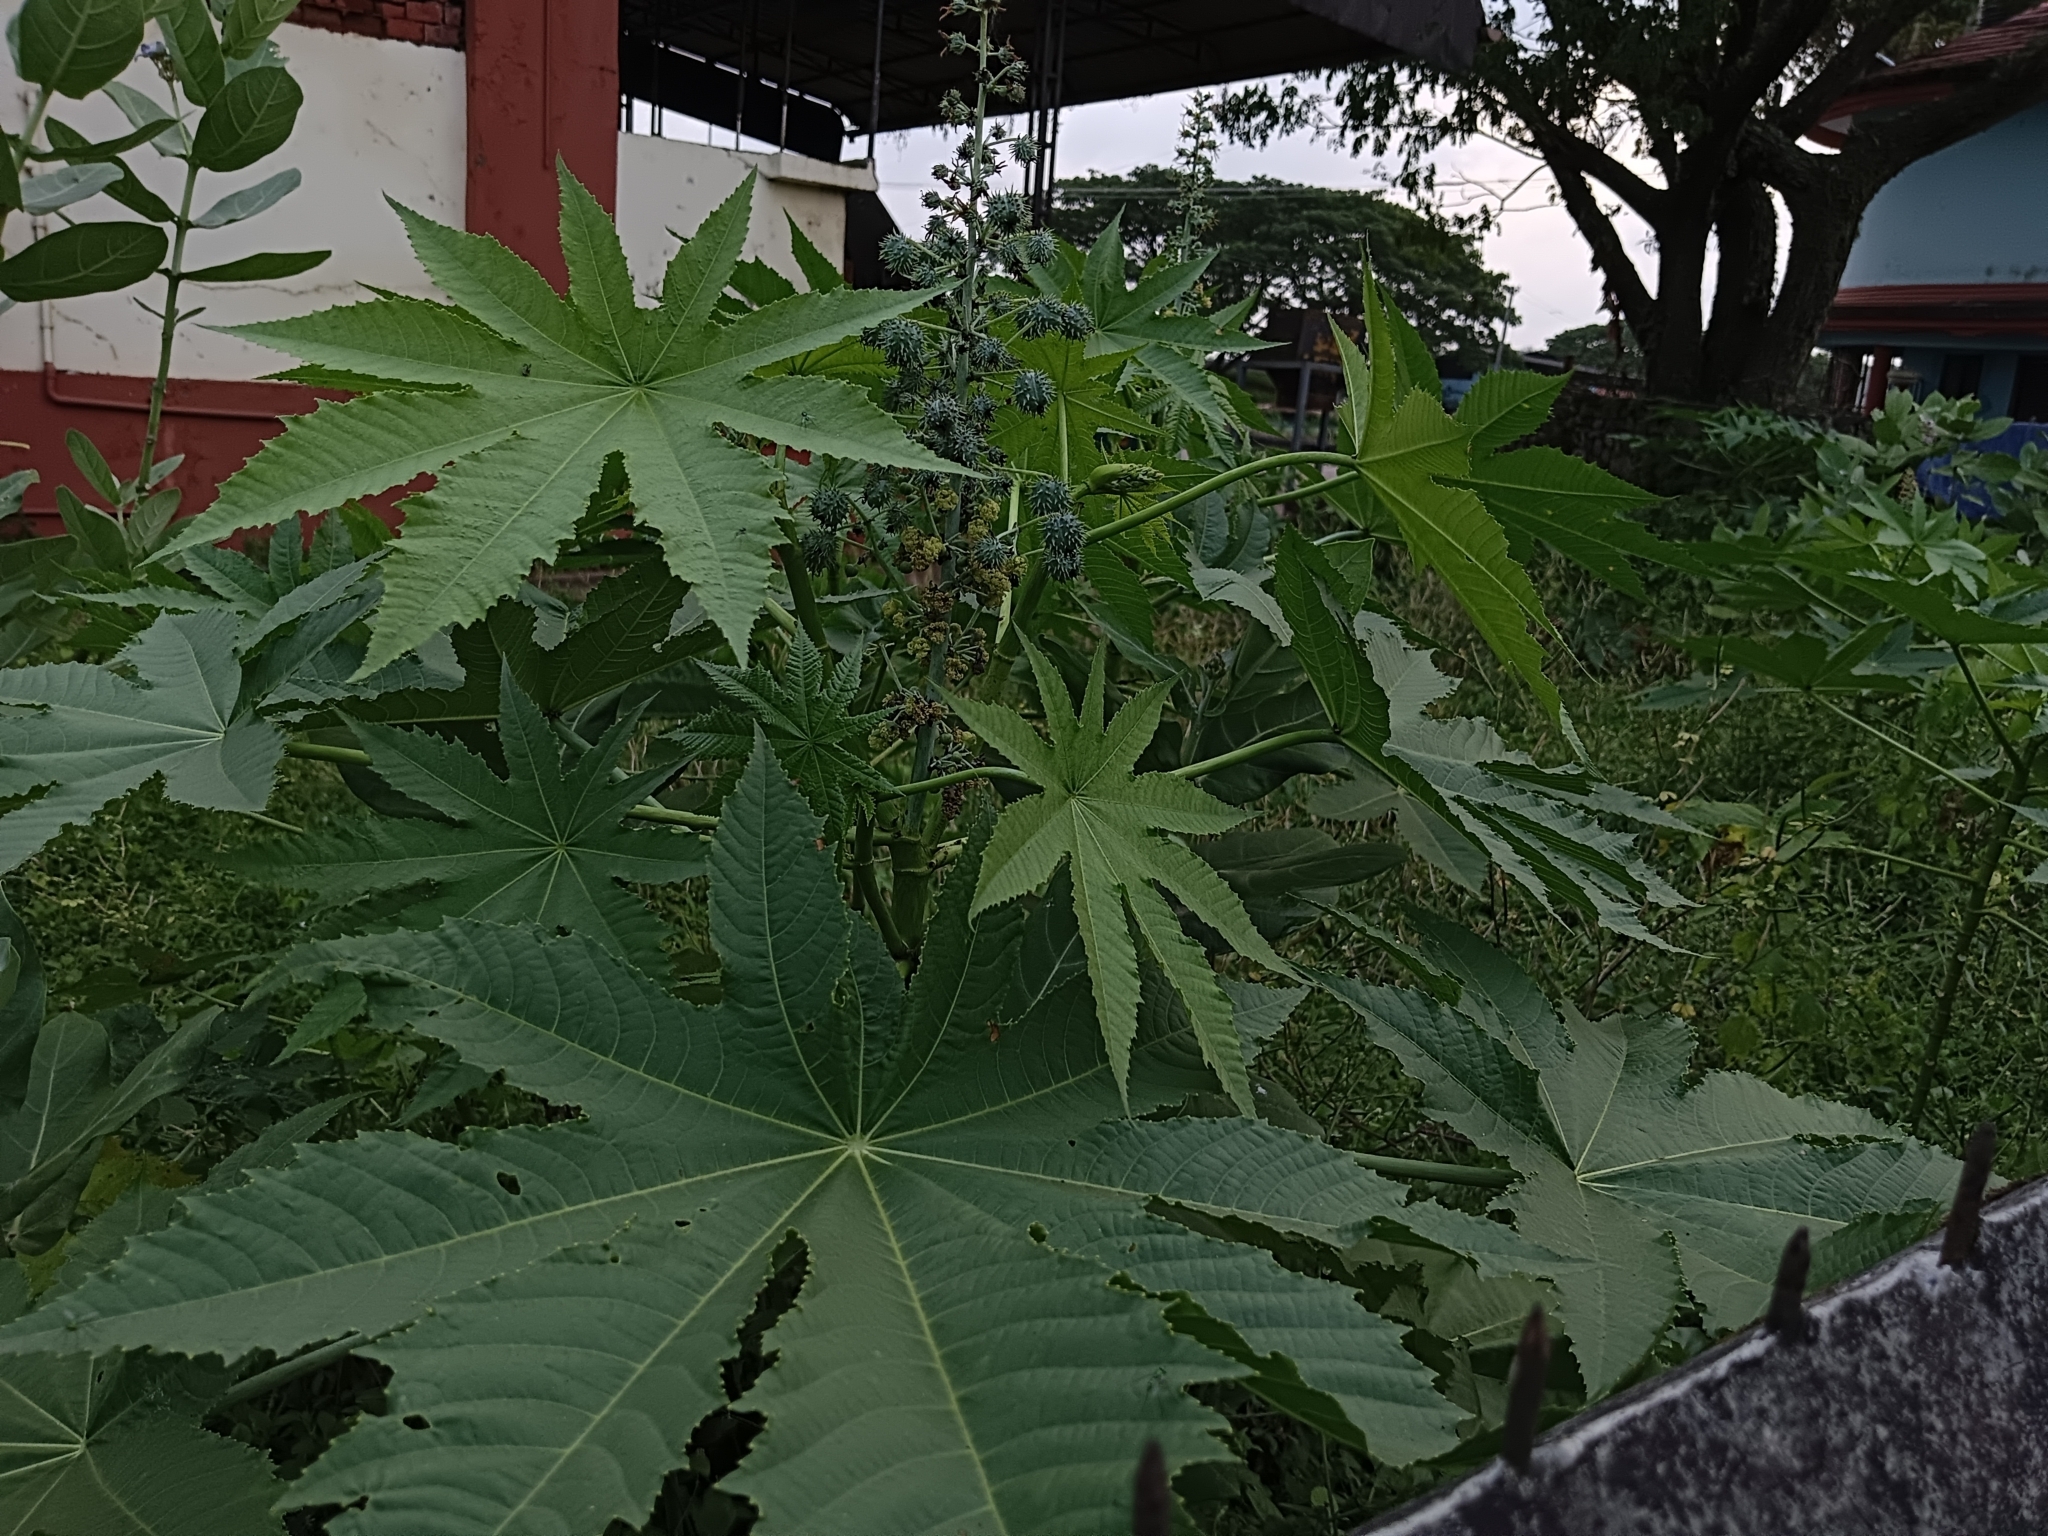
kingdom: Plantae
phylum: Tracheophyta
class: Magnoliopsida
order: Malpighiales
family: Euphorbiaceae
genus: Ricinus
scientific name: Ricinus communis
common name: Castor-oil-plant
